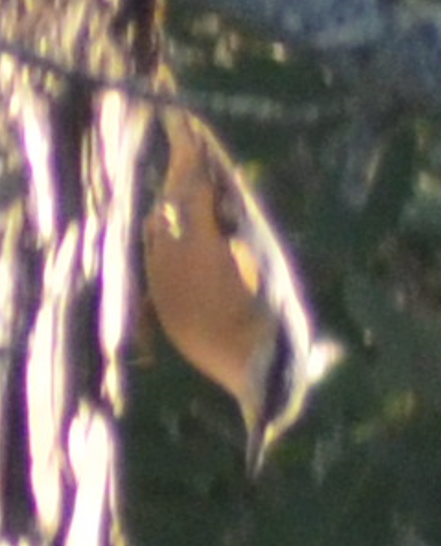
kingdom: Animalia
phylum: Chordata
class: Aves
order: Passeriformes
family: Sittidae
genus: Sitta
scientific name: Sitta europaea
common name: Eurasian nuthatch
